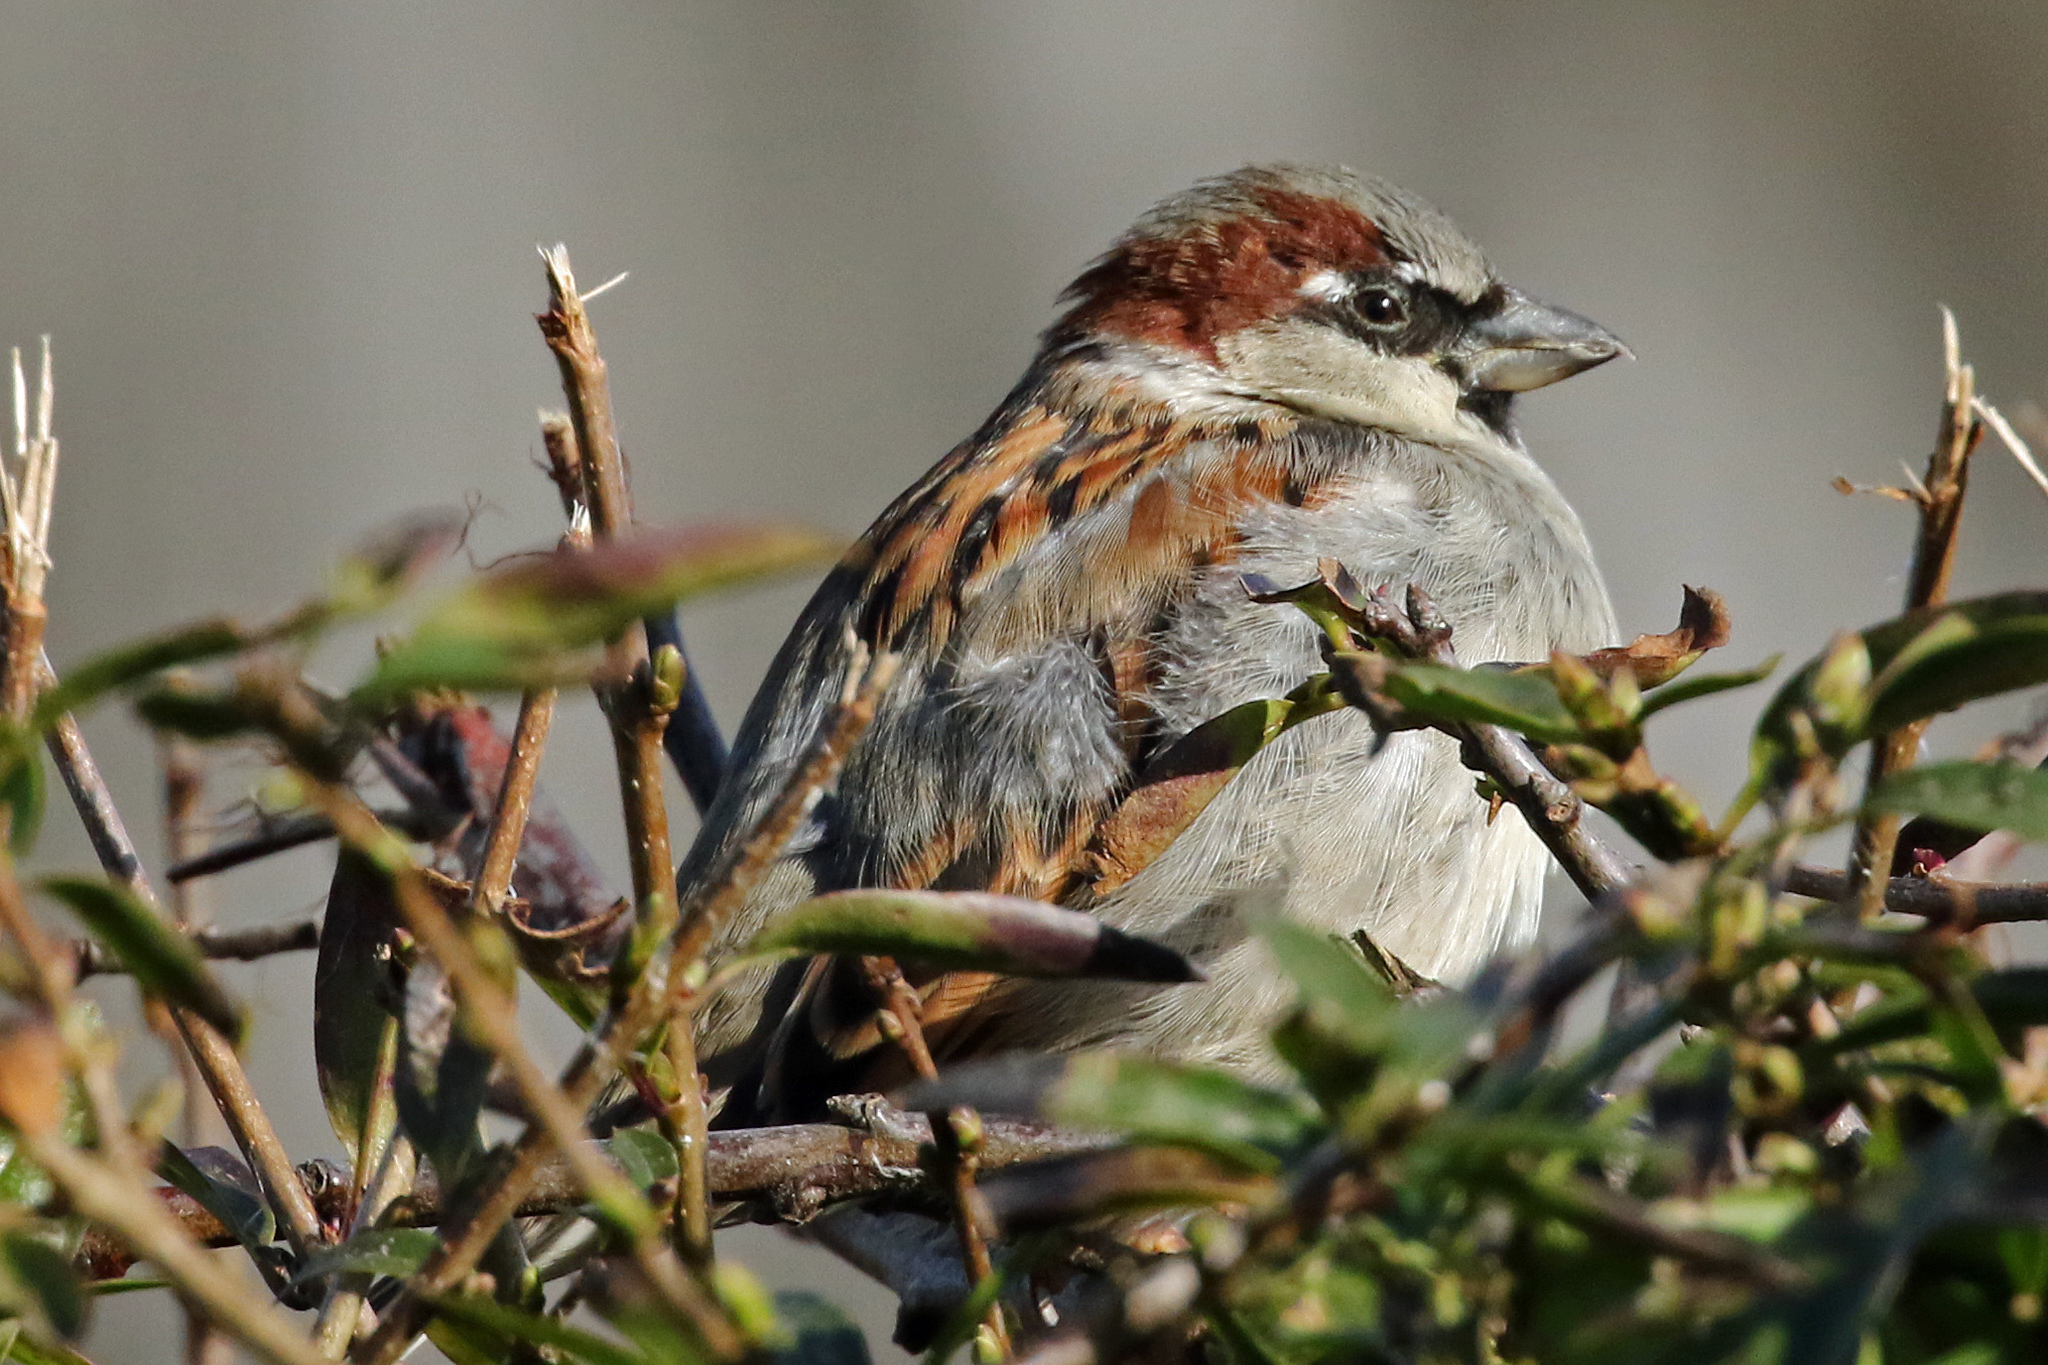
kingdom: Animalia
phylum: Chordata
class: Aves
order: Passeriformes
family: Passeridae
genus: Passer
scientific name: Passer domesticus
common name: House sparrow
